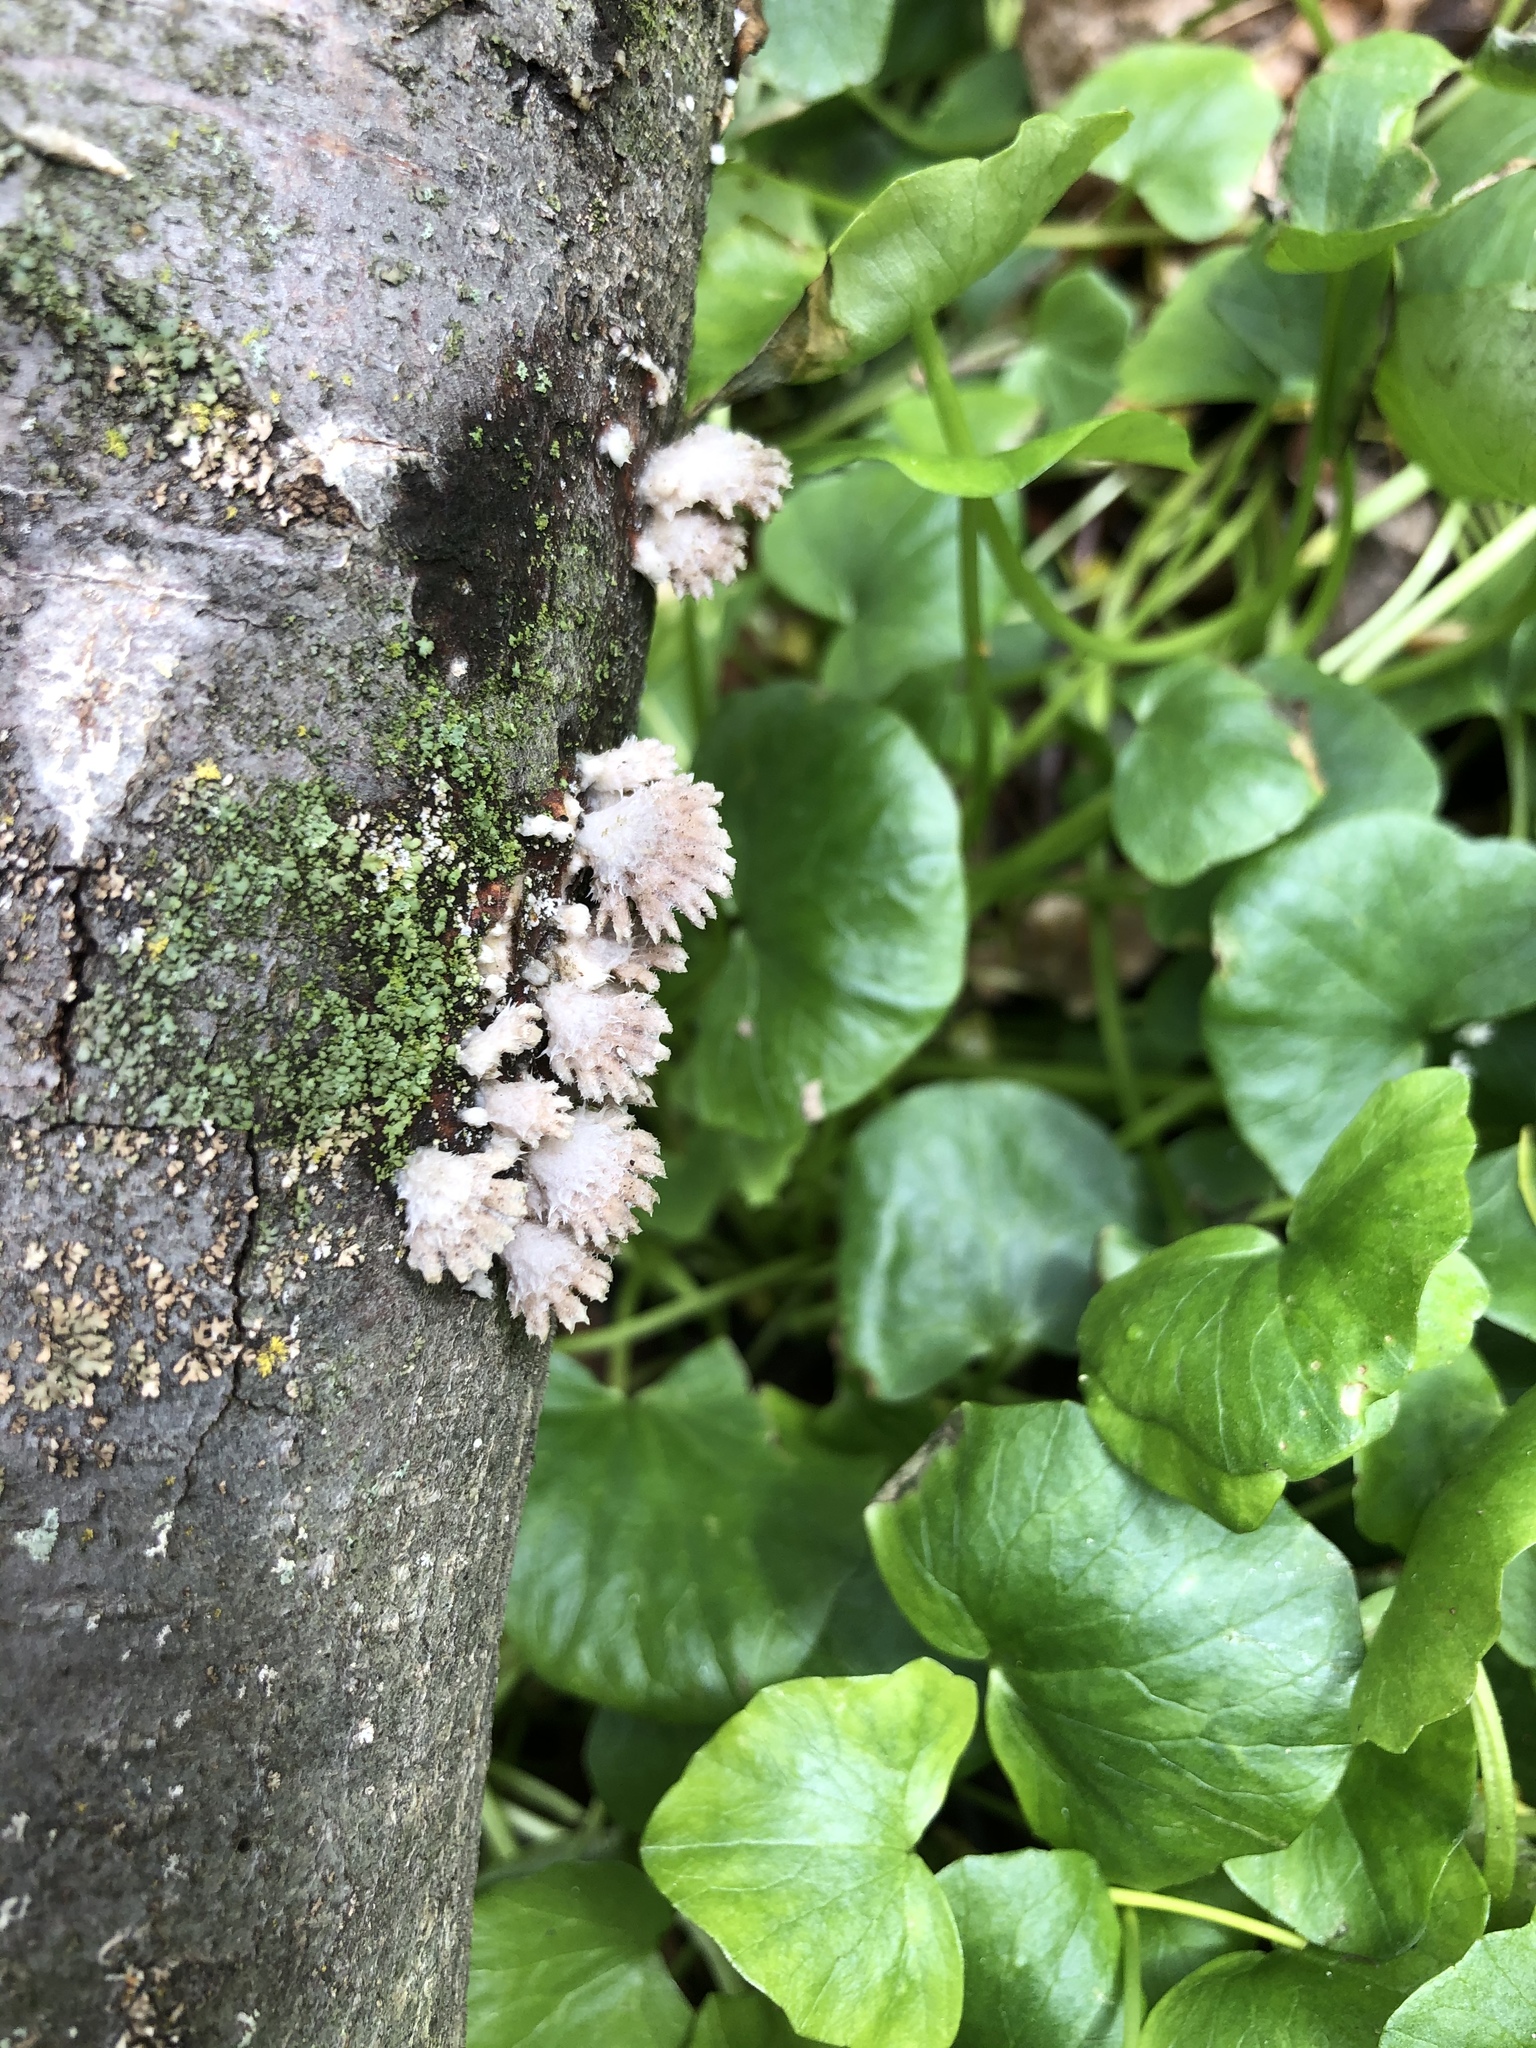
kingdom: Fungi
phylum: Basidiomycota
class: Agaricomycetes
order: Agaricales
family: Schizophyllaceae
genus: Schizophyllum
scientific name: Schizophyllum commune
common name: Common porecrust
